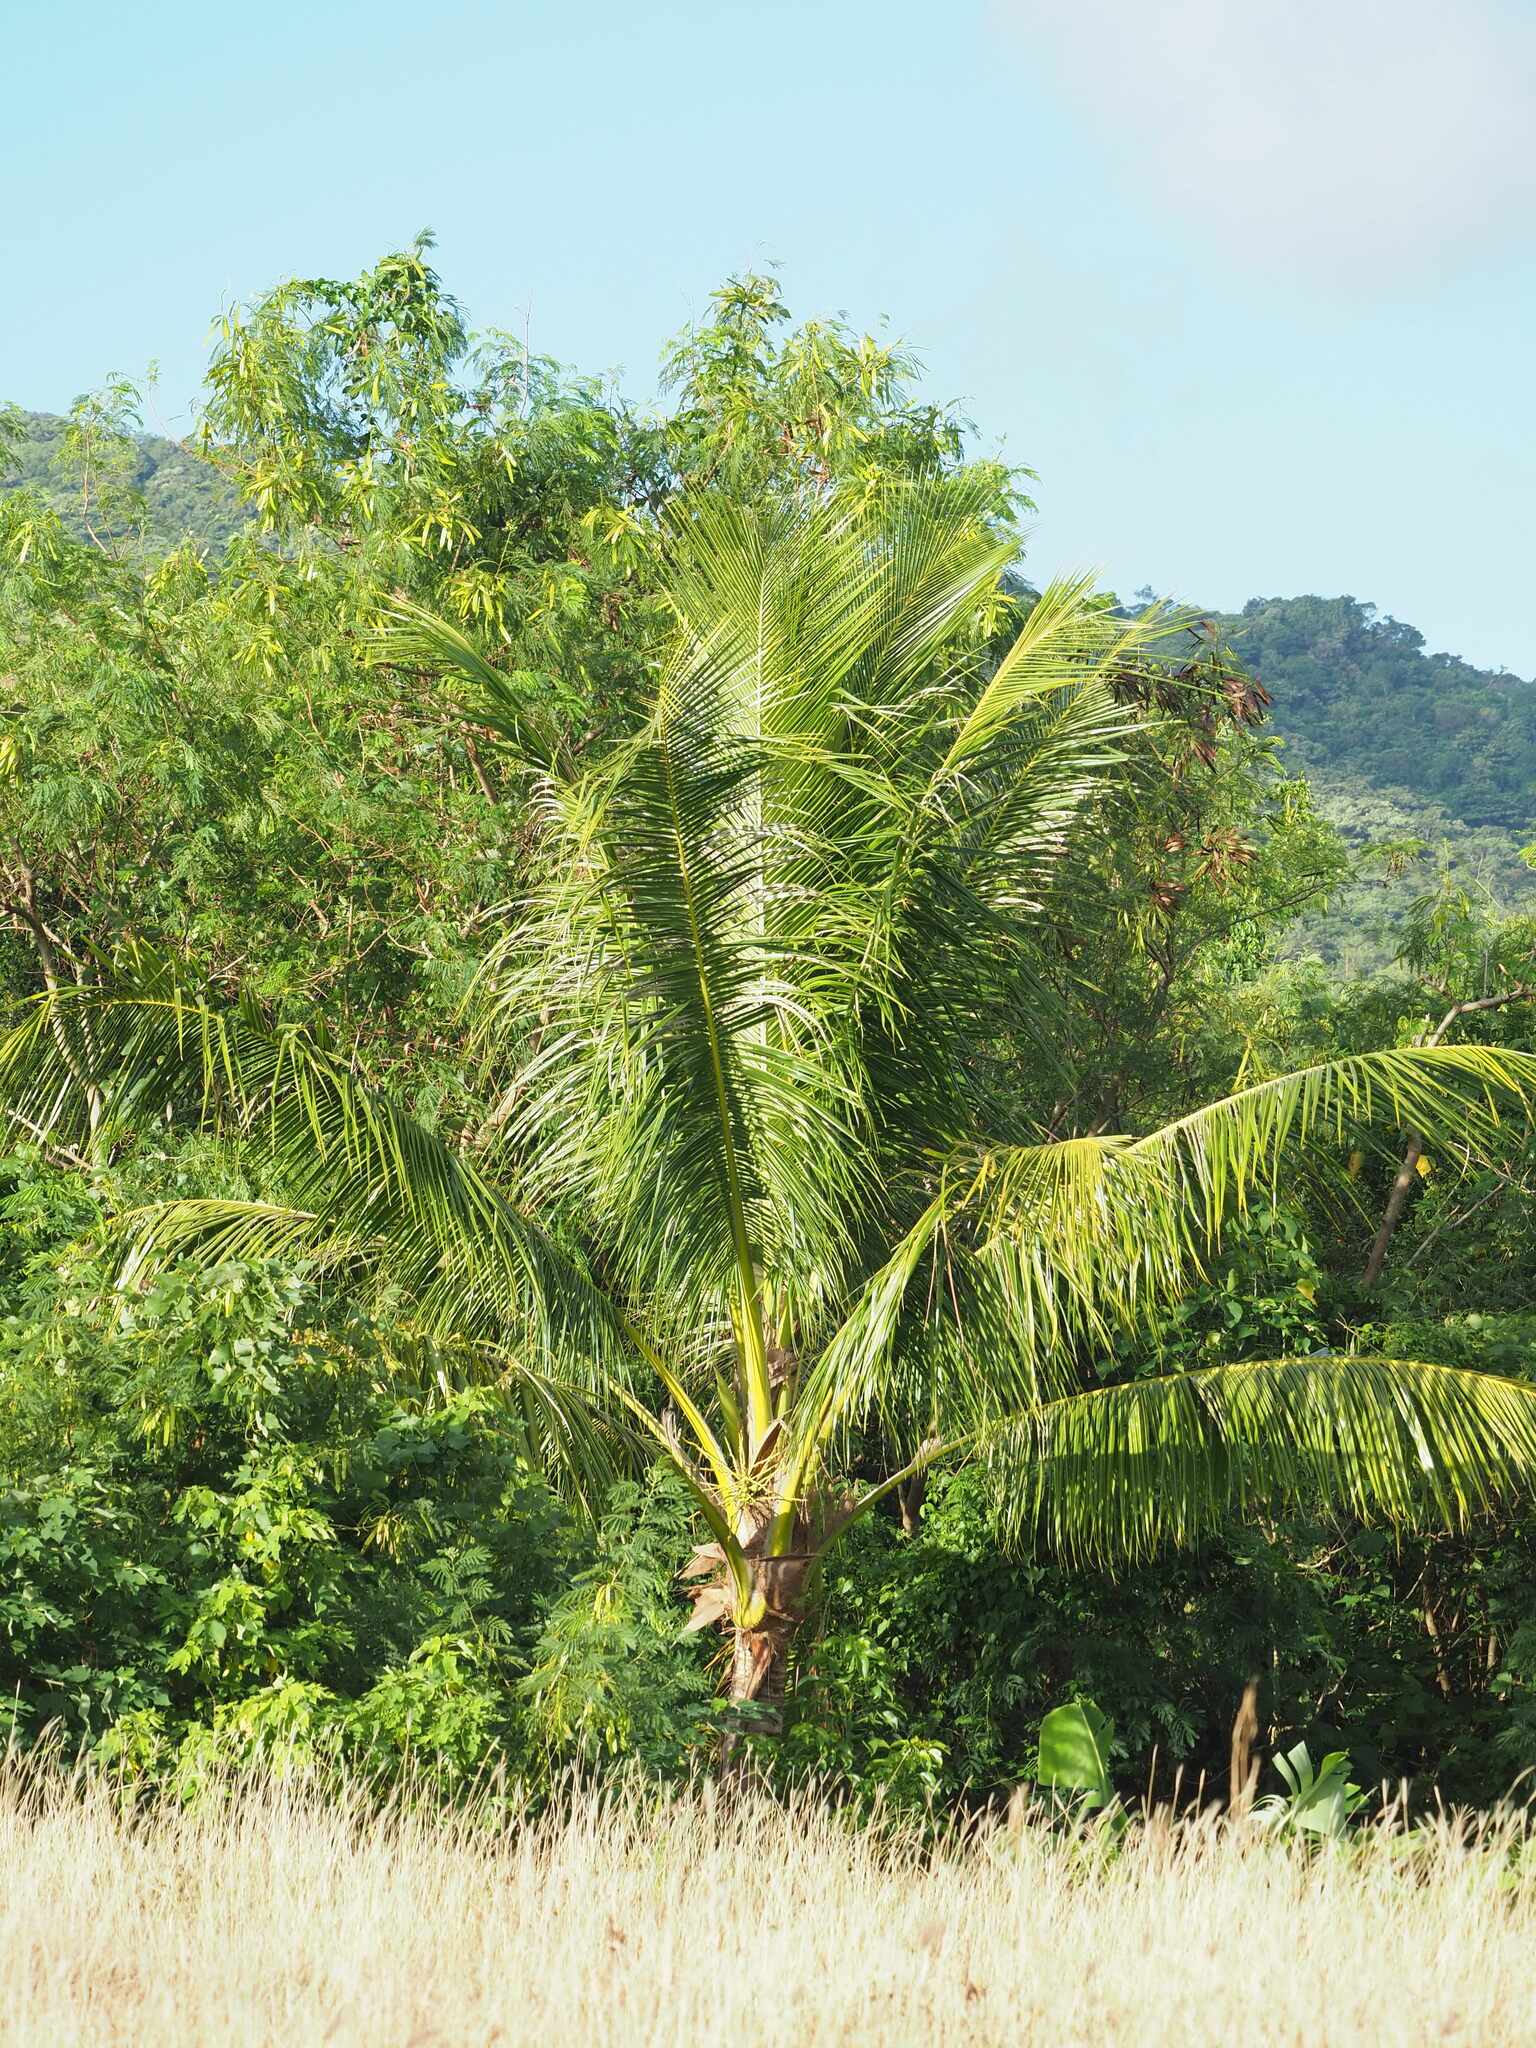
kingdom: Plantae
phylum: Tracheophyta
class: Liliopsida
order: Arecales
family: Arecaceae
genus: Cocos
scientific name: Cocos nucifera
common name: Coconut palm
